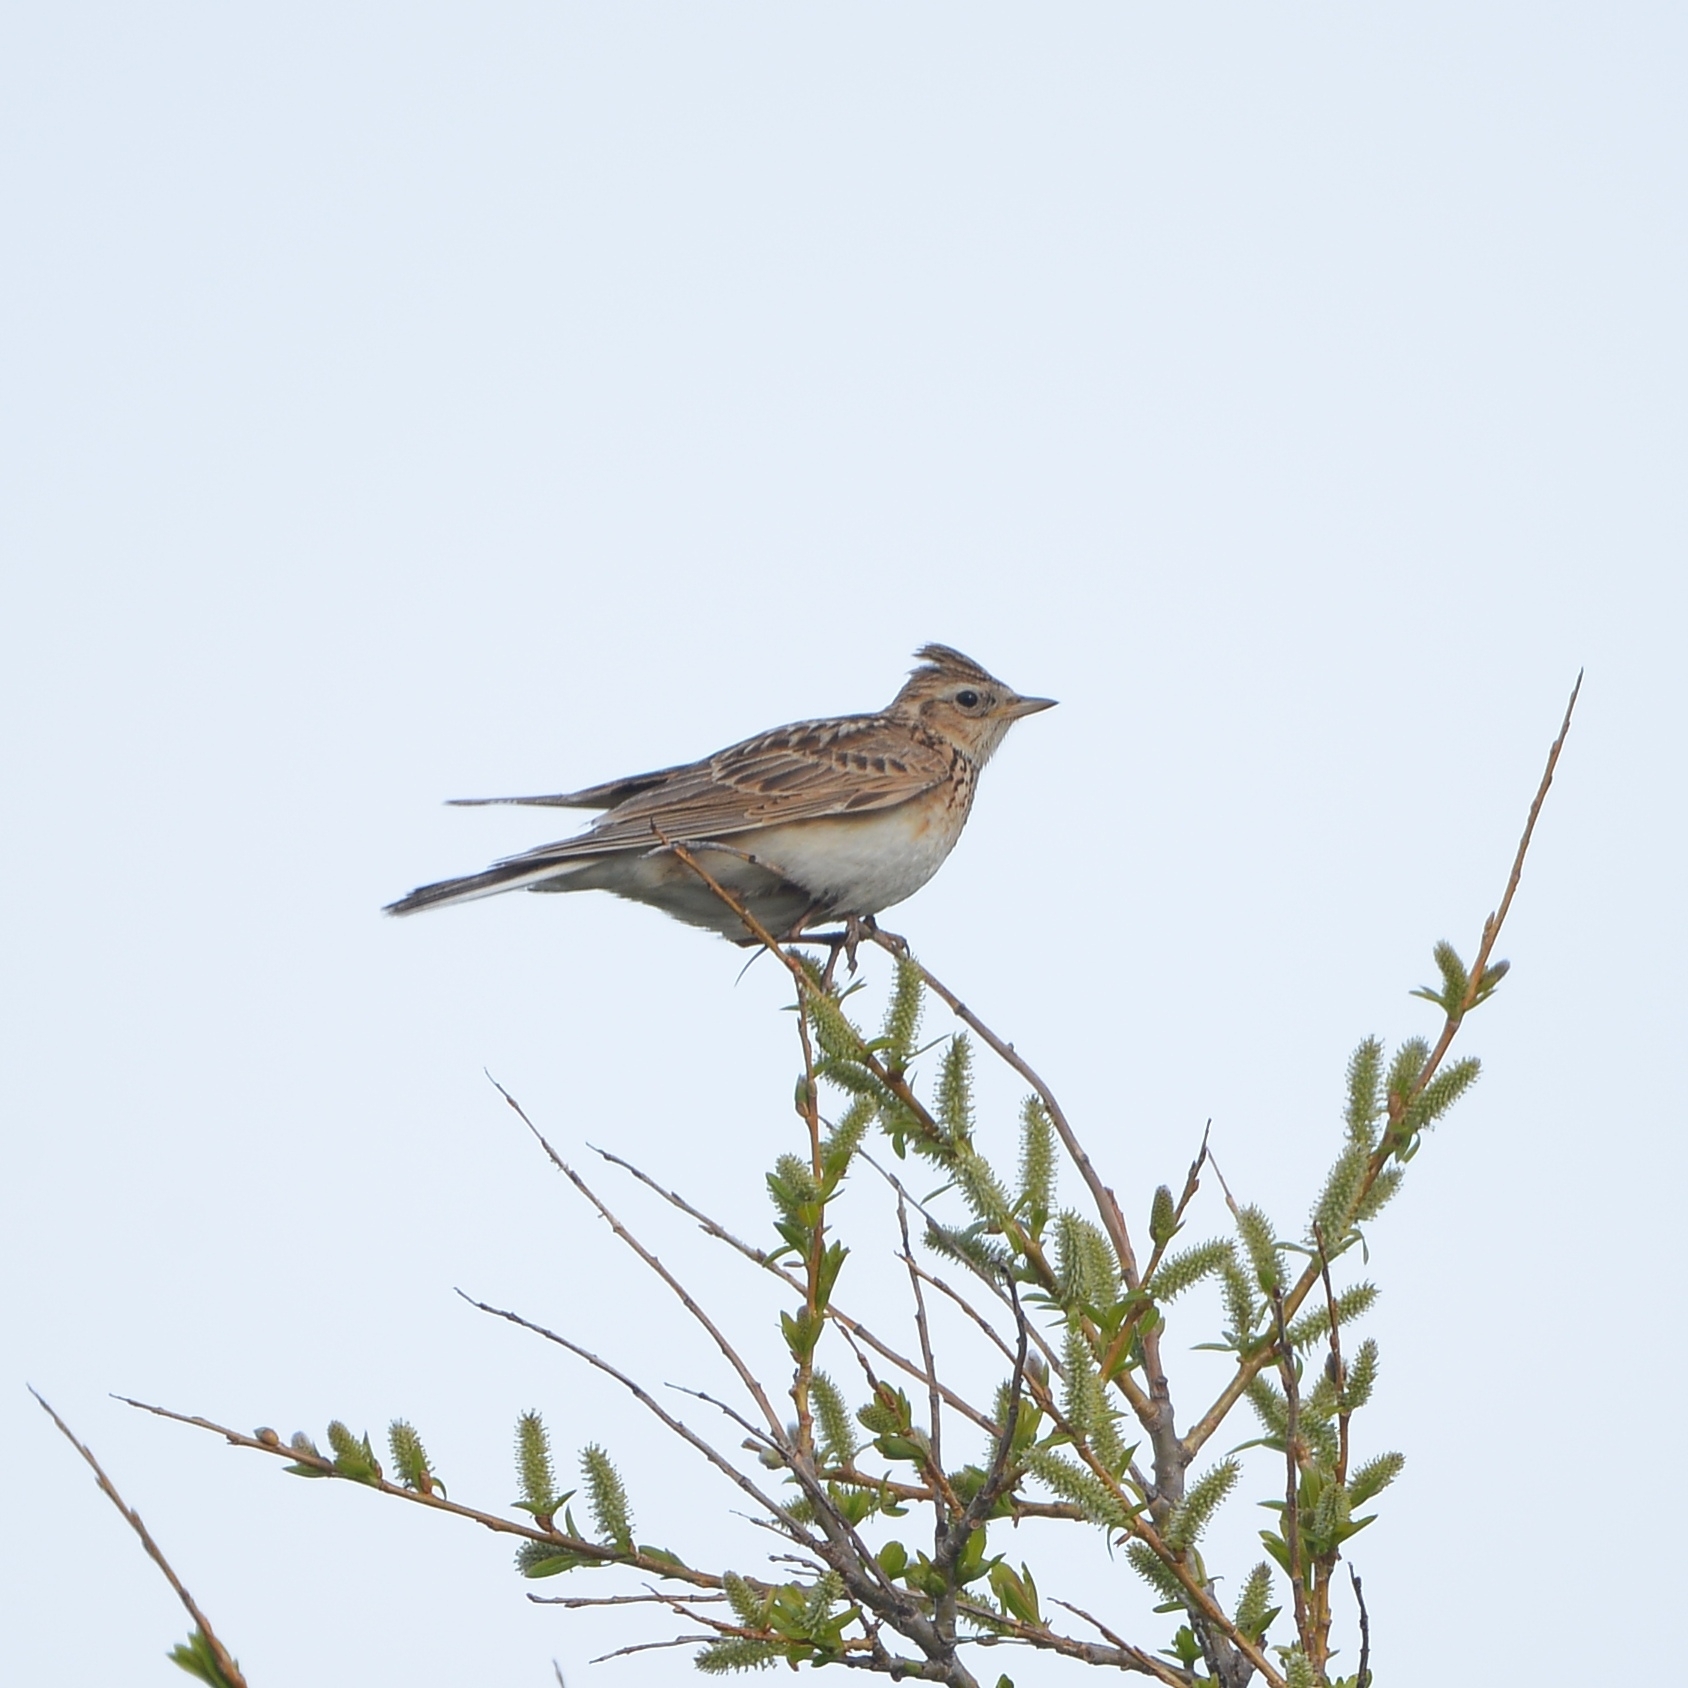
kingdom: Animalia
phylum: Chordata
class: Aves
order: Passeriformes
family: Alaudidae
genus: Alauda
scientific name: Alauda arvensis
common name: Eurasian skylark
